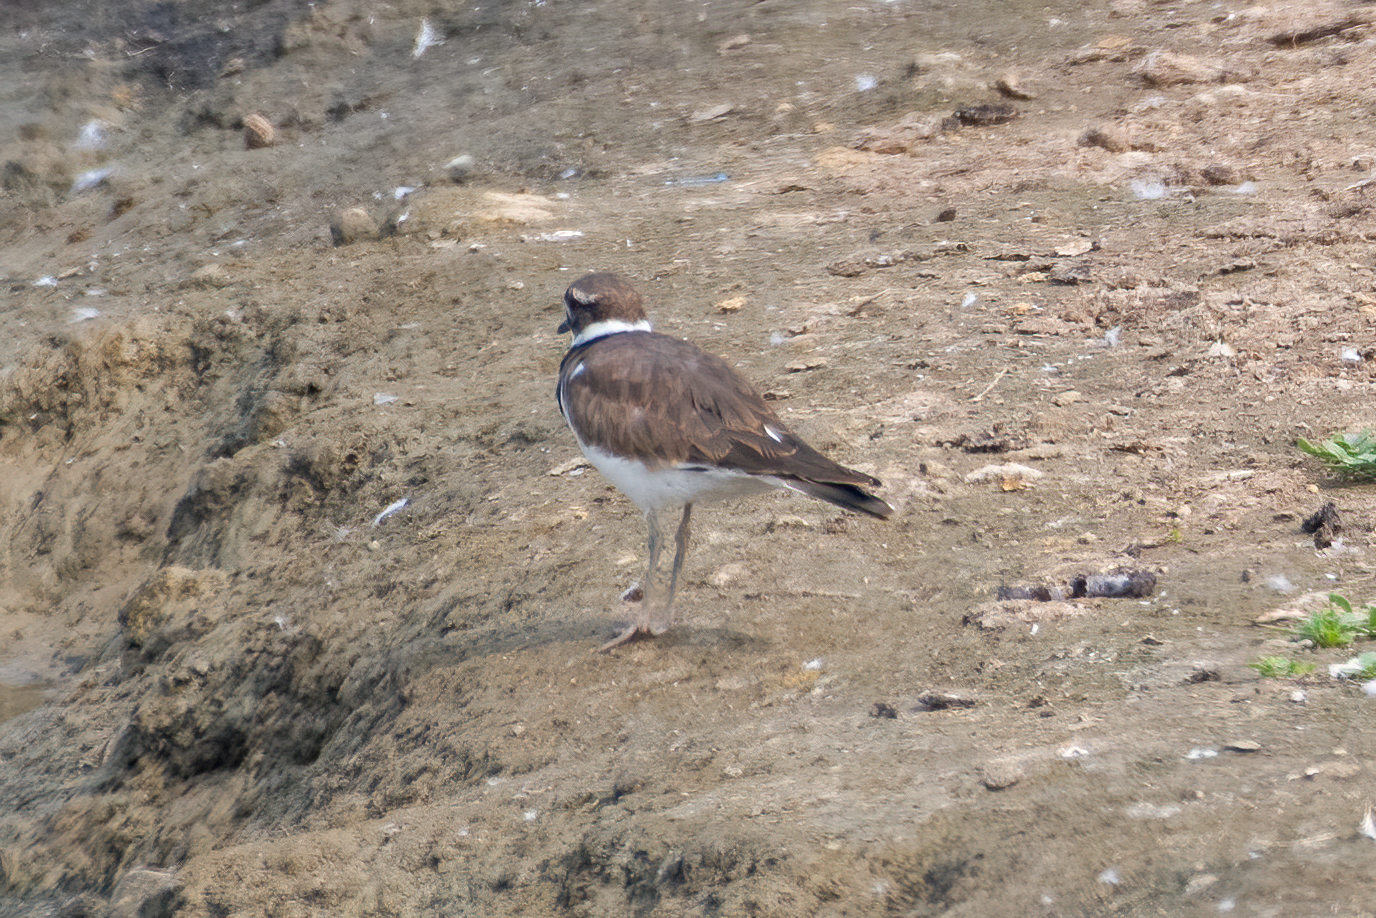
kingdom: Animalia
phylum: Chordata
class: Aves
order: Charadriiformes
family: Charadriidae
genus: Charadrius
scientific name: Charadrius vociferus
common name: Killdeer
